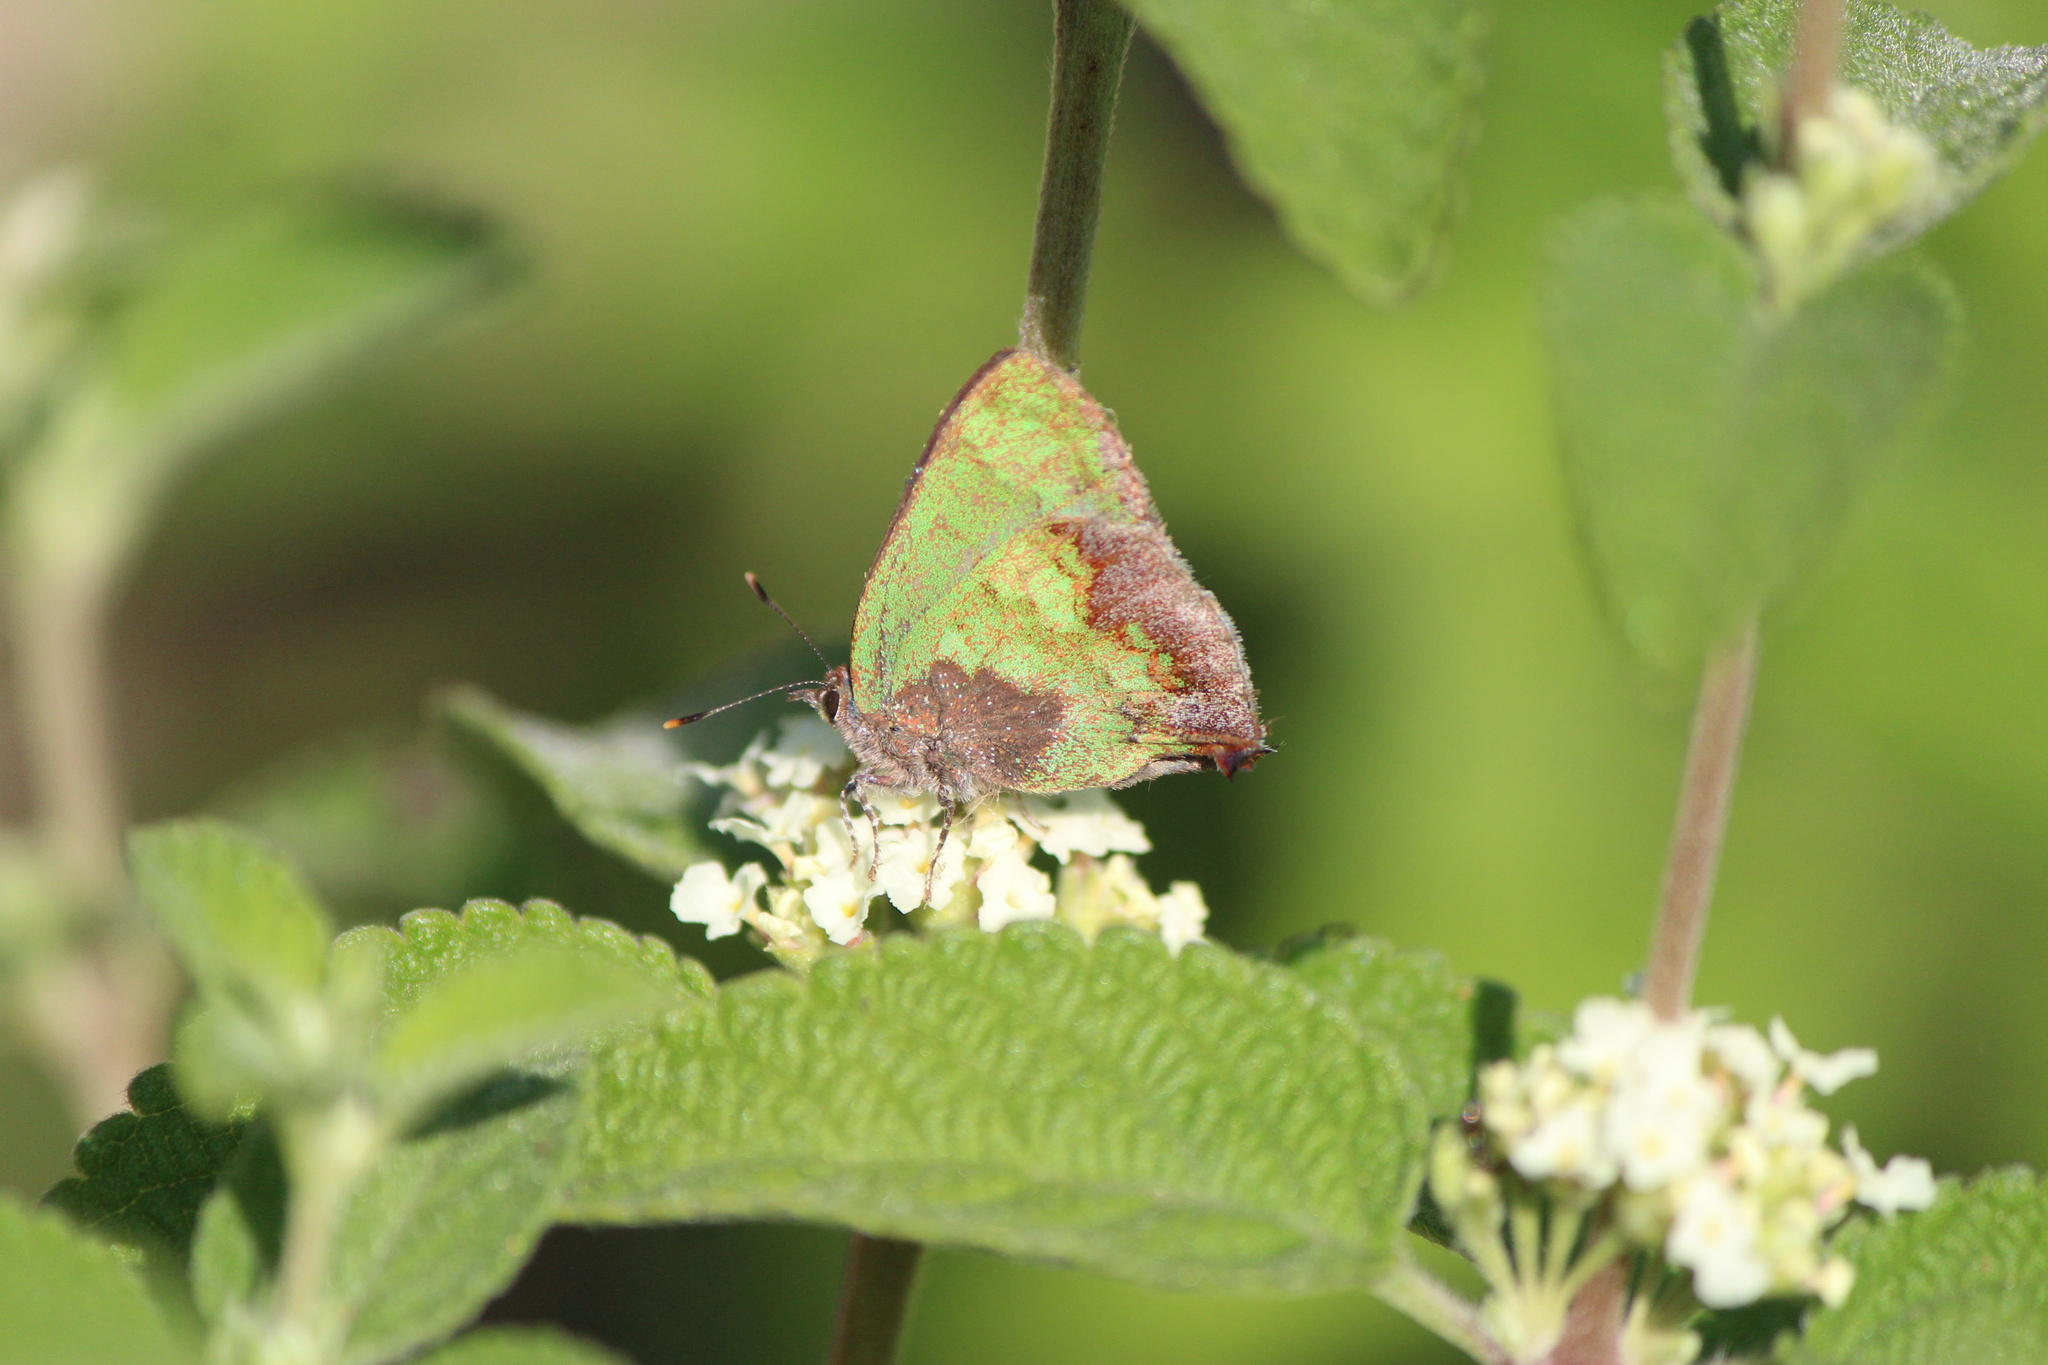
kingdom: Animalia
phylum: Arthropoda
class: Insecta
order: Lepidoptera
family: Lycaenidae
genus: Cyanophrys
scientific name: Cyanophrys agricolor
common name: Stained greenstreak
